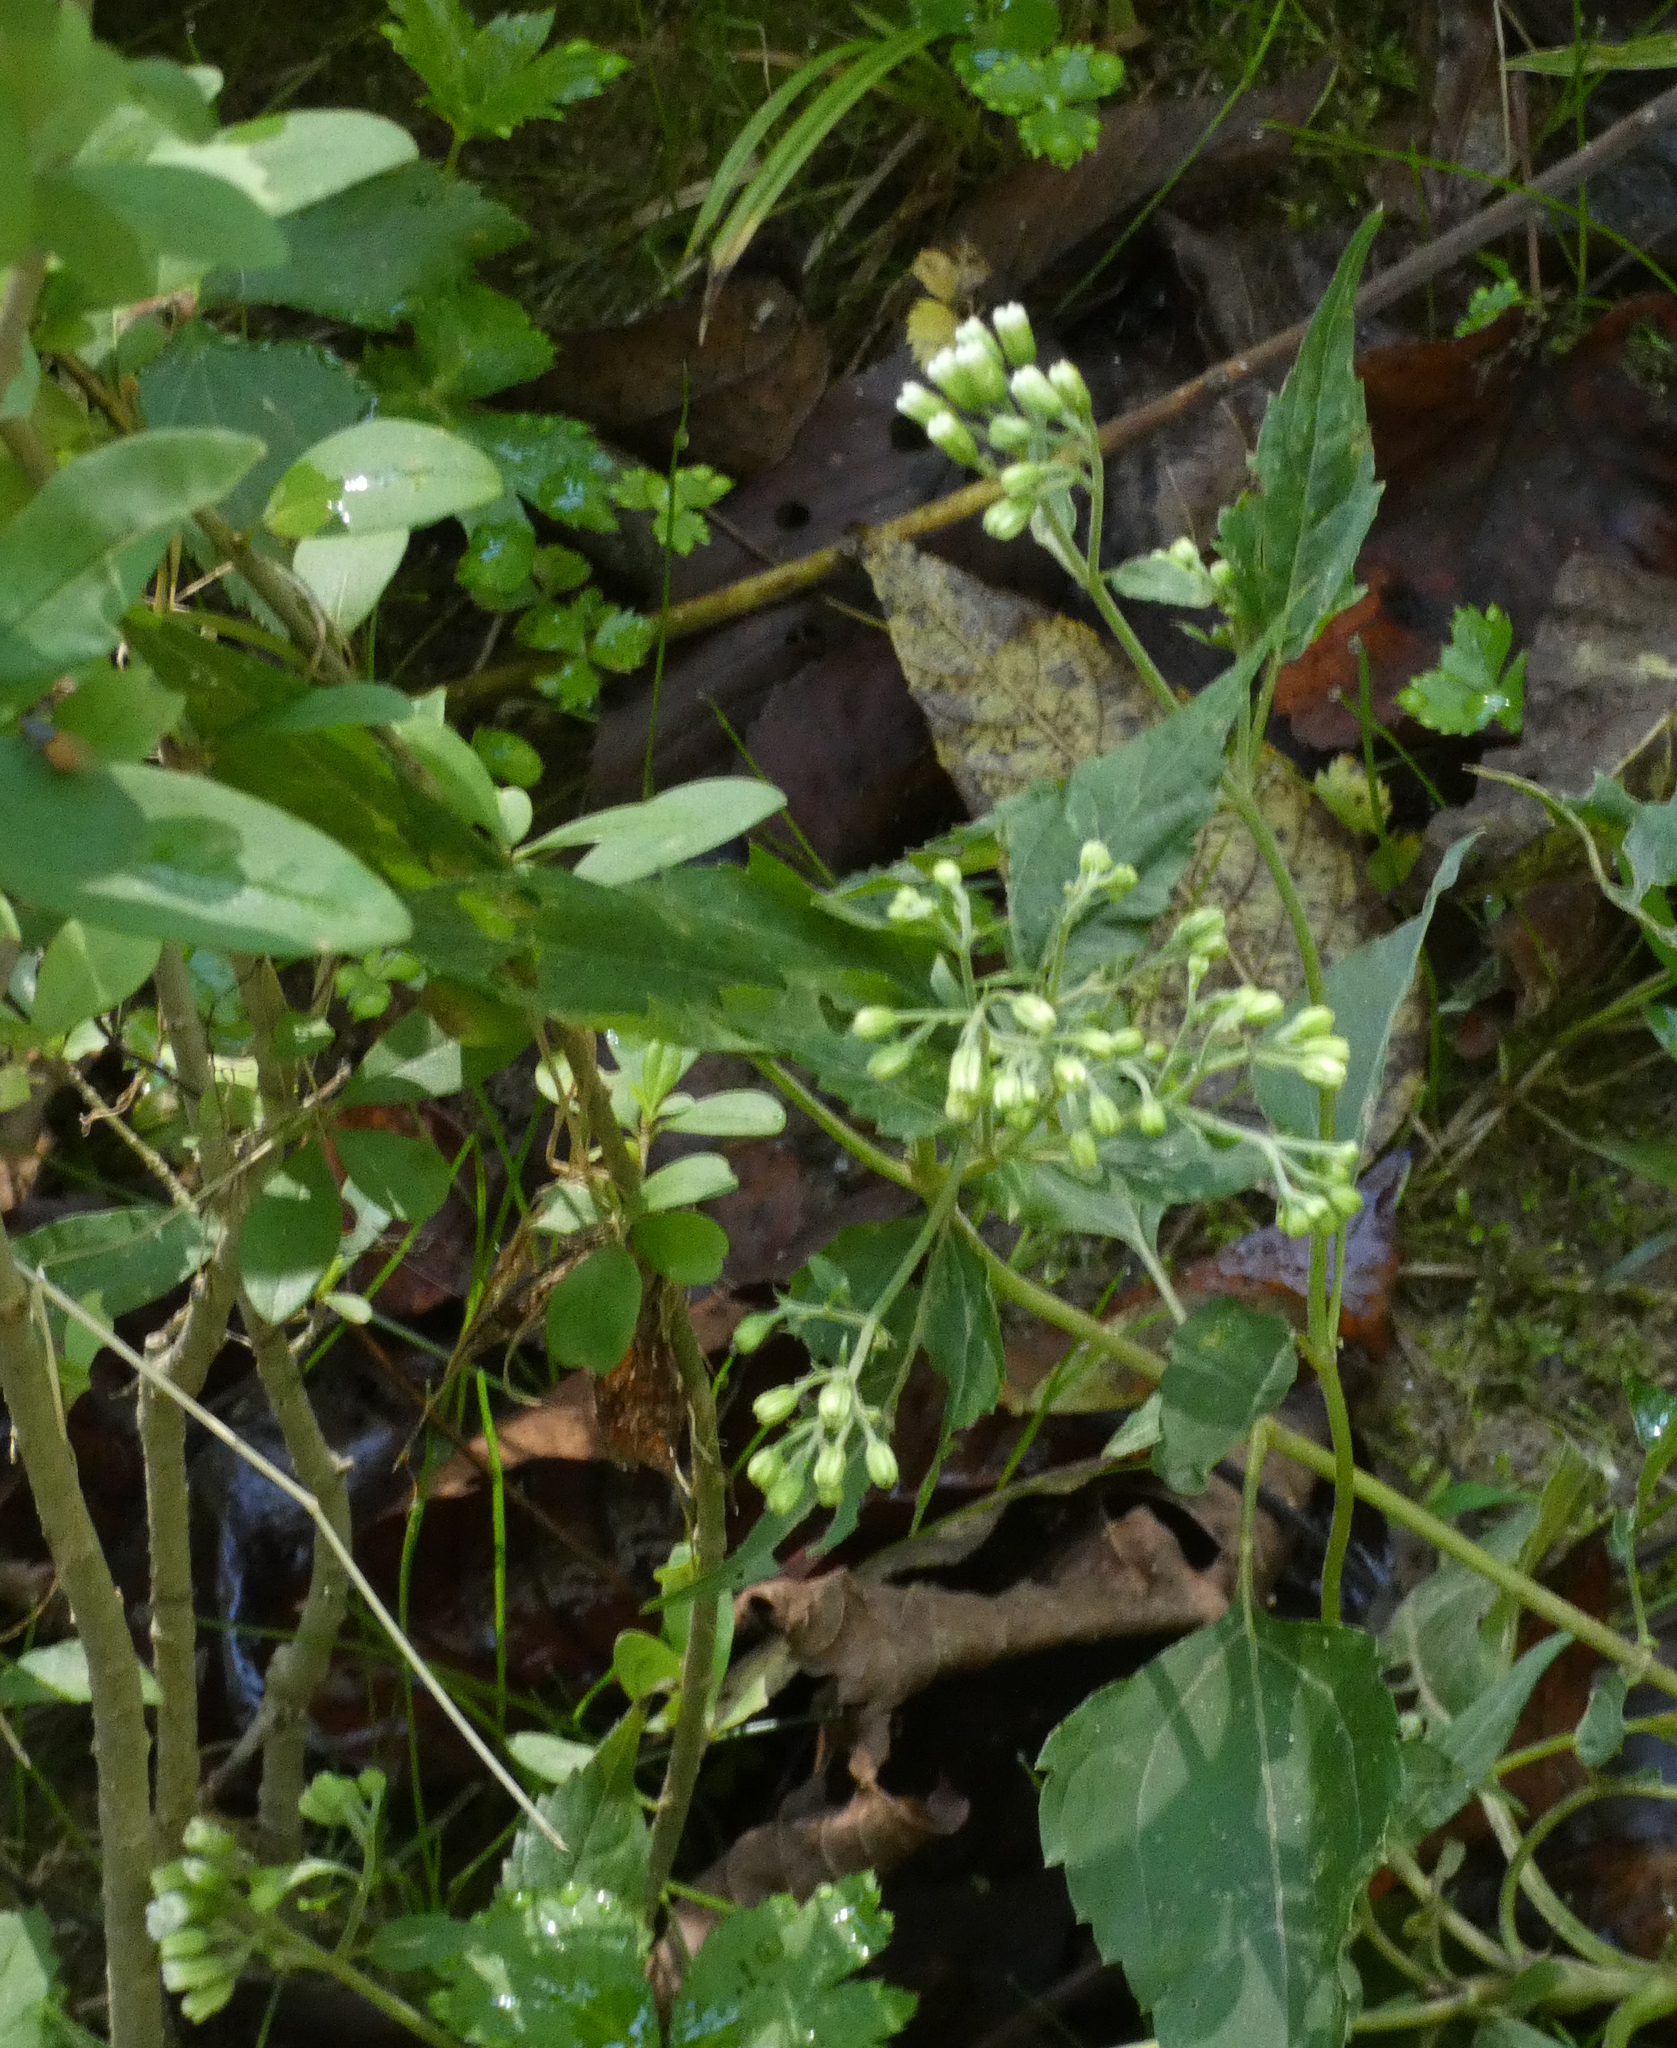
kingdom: Plantae
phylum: Tracheophyta
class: Magnoliopsida
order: Asterales
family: Asteraceae
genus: Ageratina
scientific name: Ageratina altissima
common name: White snakeroot
